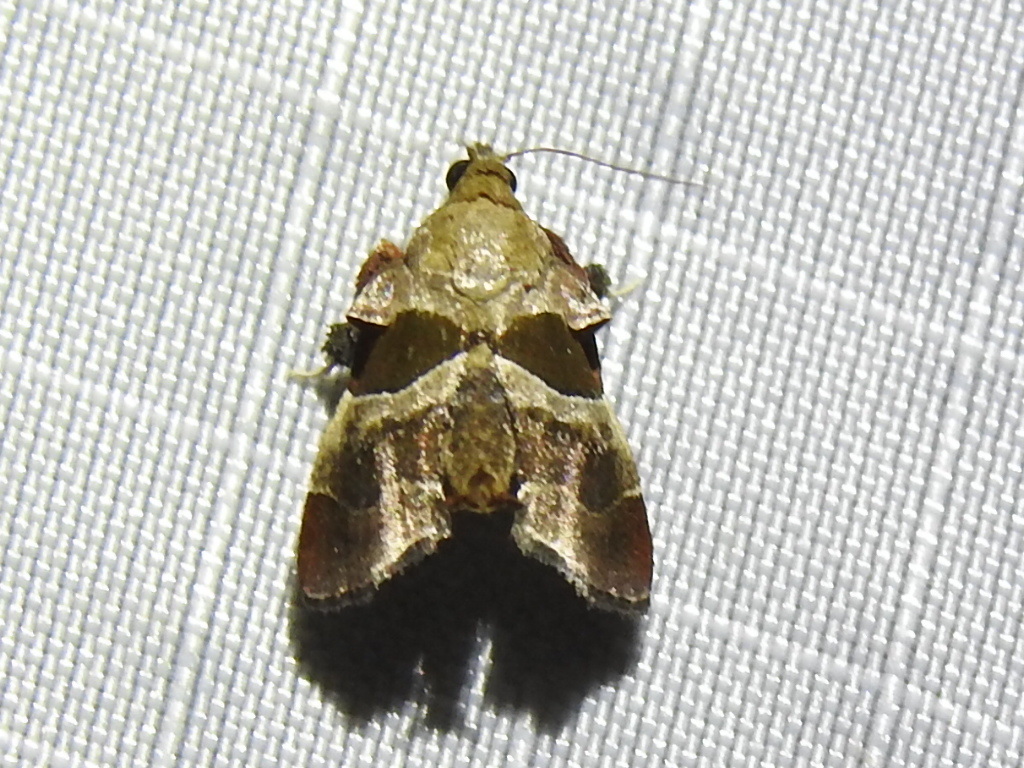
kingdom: Animalia
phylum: Arthropoda
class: Insecta
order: Lepidoptera
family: Pyralidae
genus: Tosale
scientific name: Tosale oviplagalis
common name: Dimorphic tosale moth
